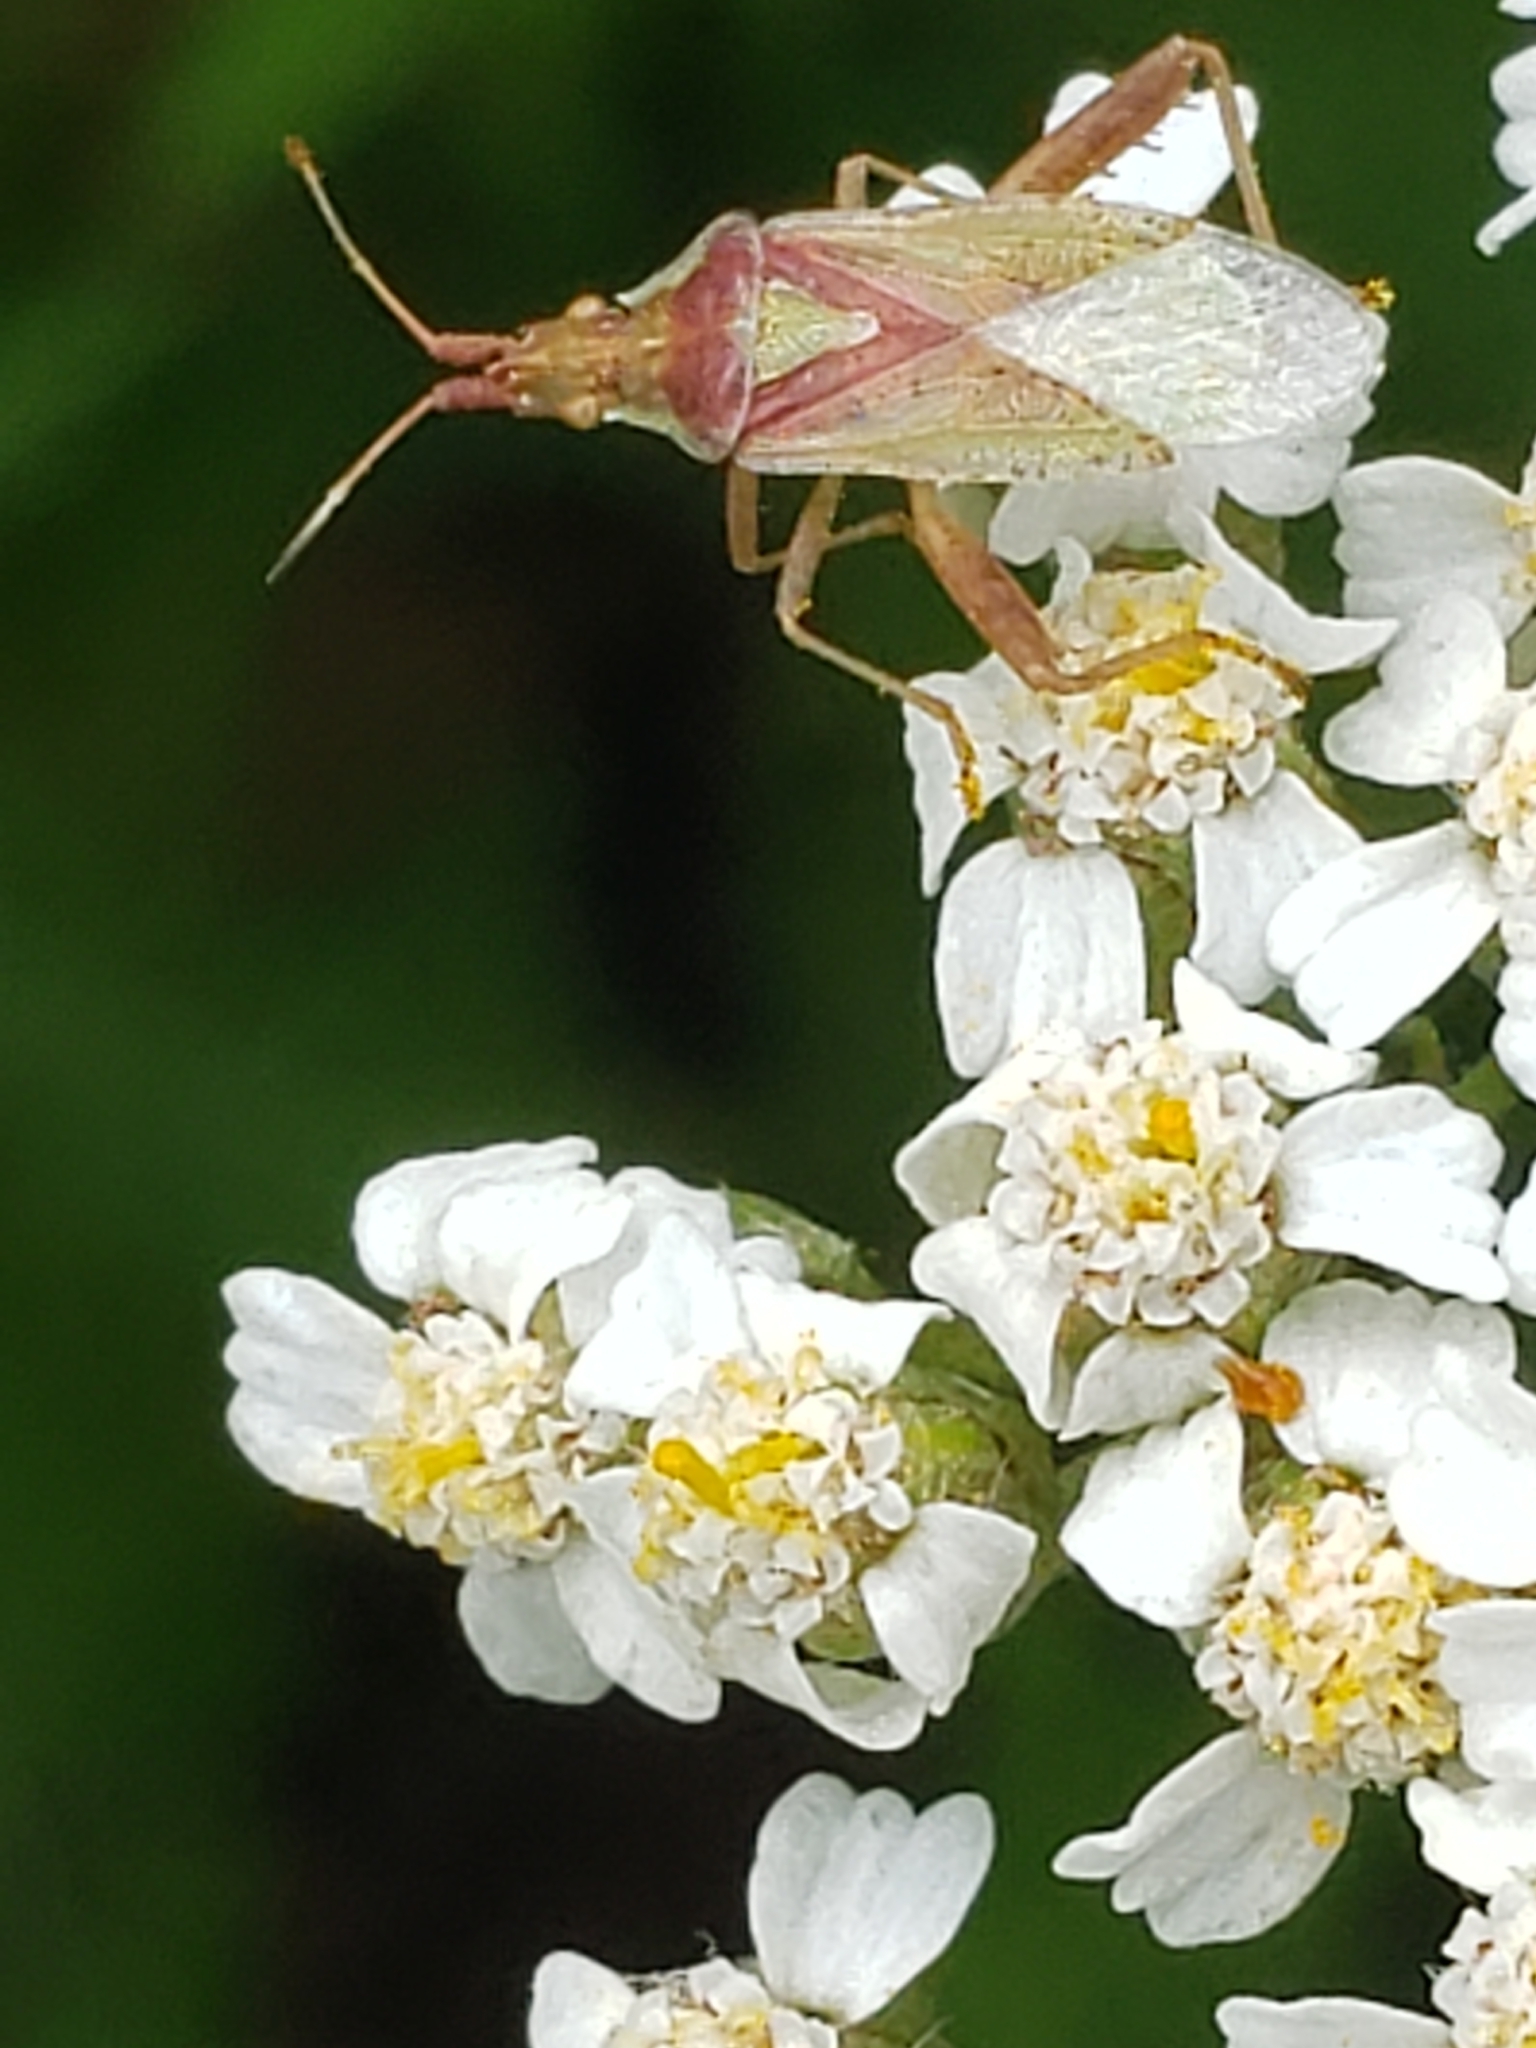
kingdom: Animalia
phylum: Arthropoda
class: Insecta
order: Hemiptera
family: Rhopalidae
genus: Harmostes
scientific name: Harmostes reflexulus
